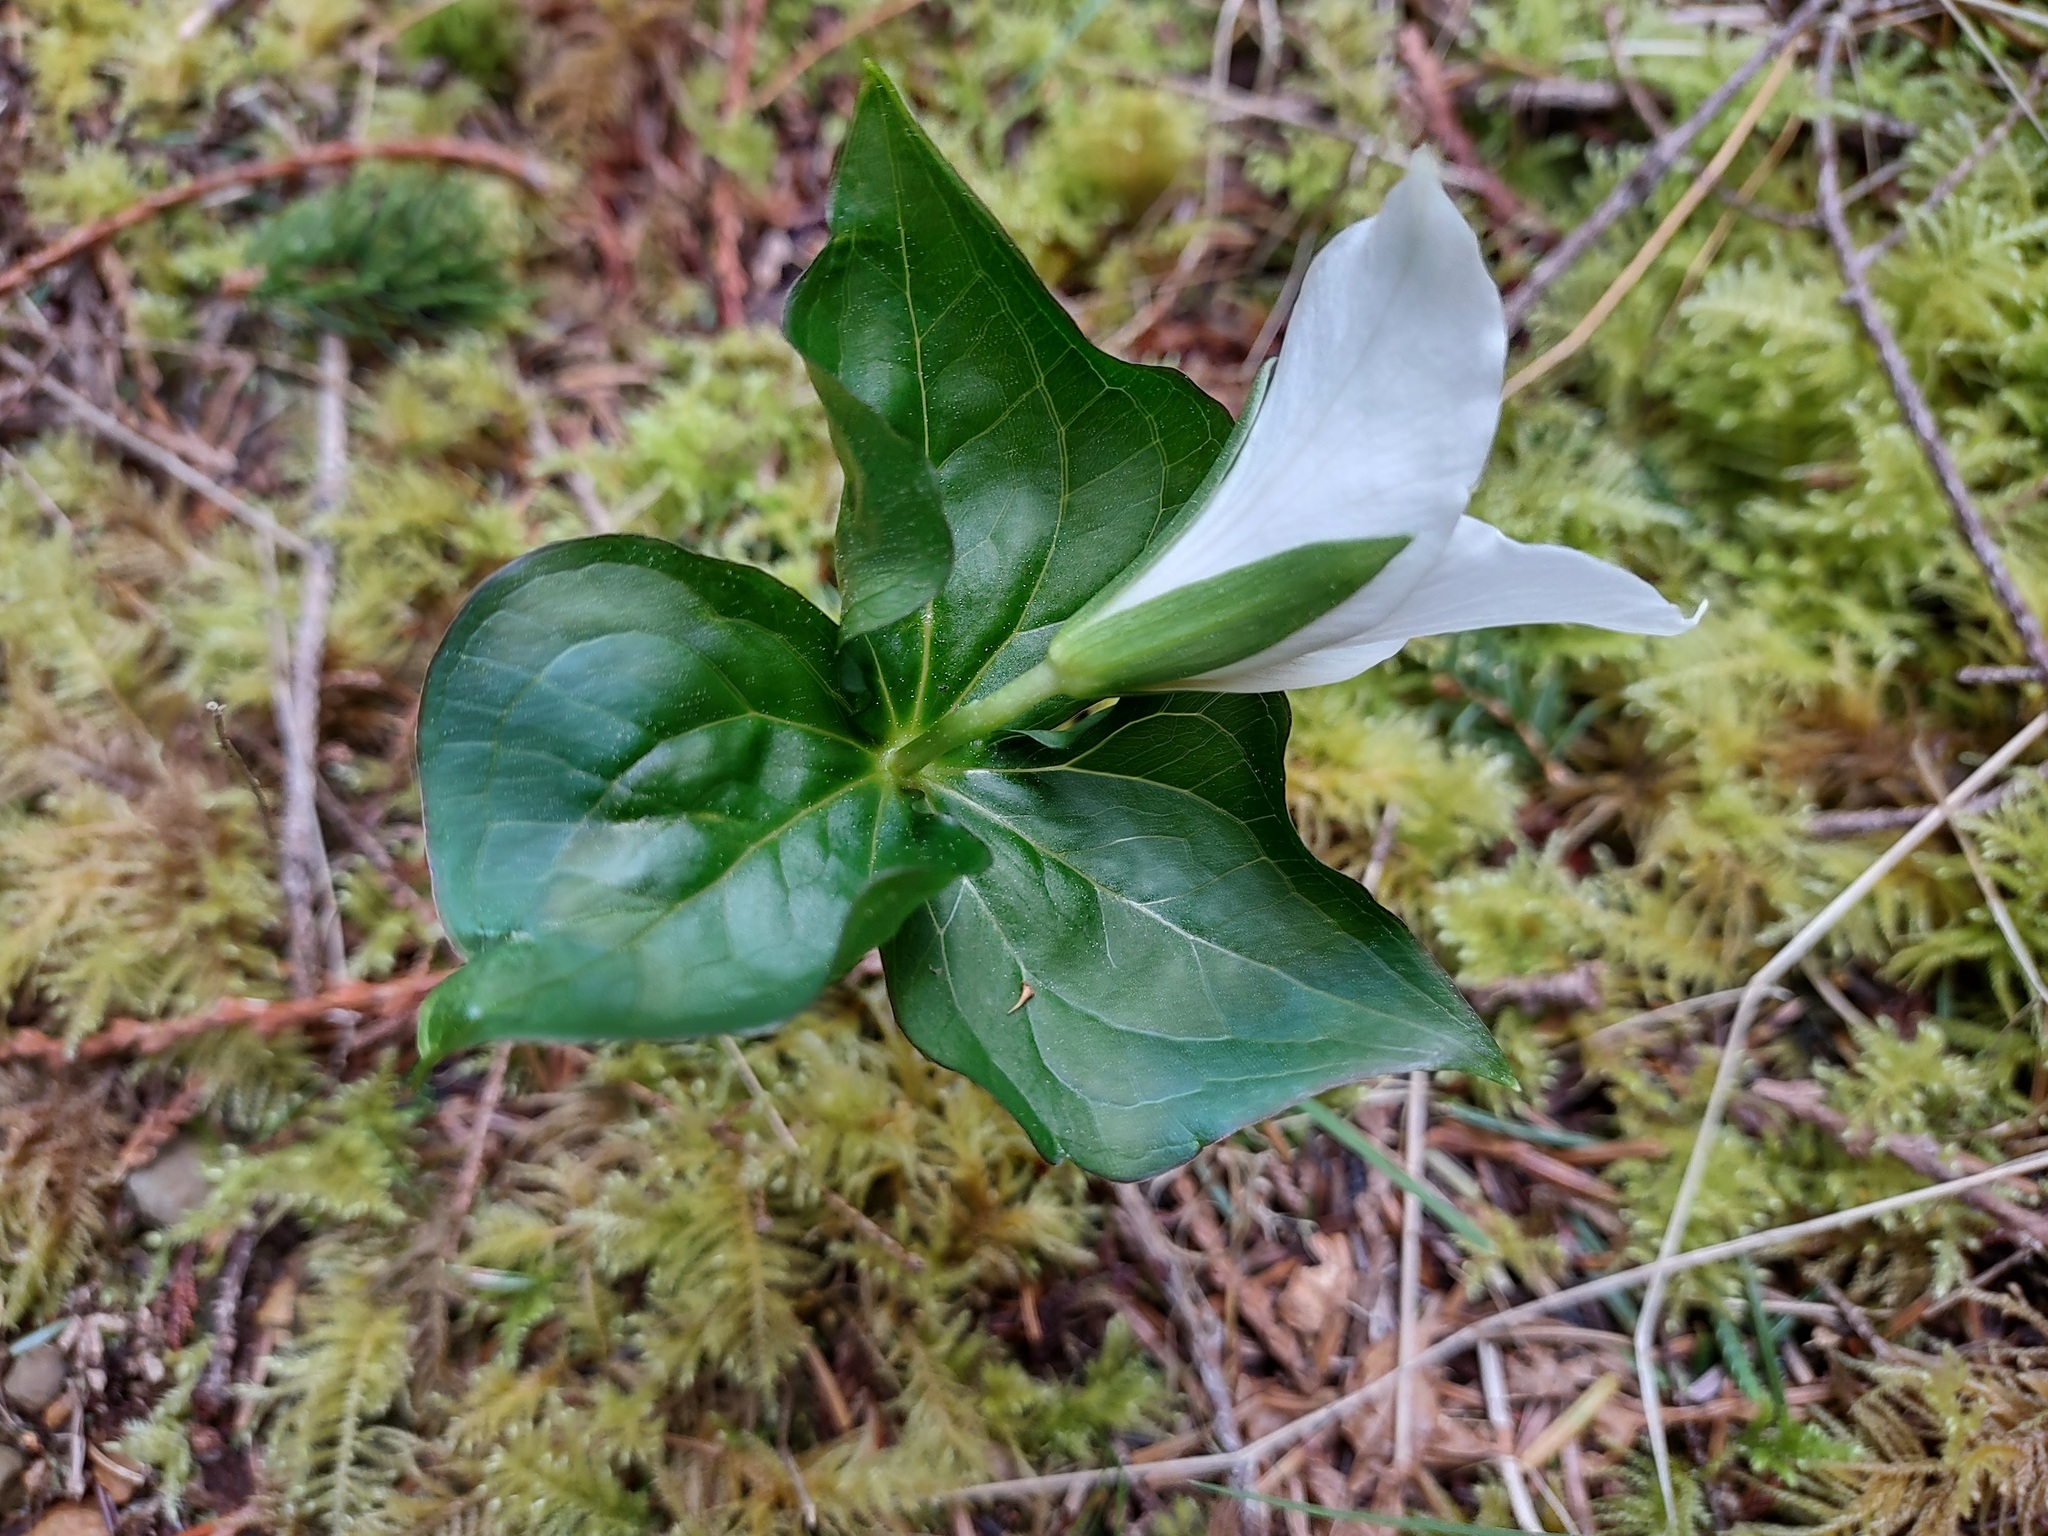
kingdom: Plantae
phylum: Tracheophyta
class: Liliopsida
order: Liliales
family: Melanthiaceae
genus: Trillium
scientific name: Trillium ovatum
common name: Pacific trillium
